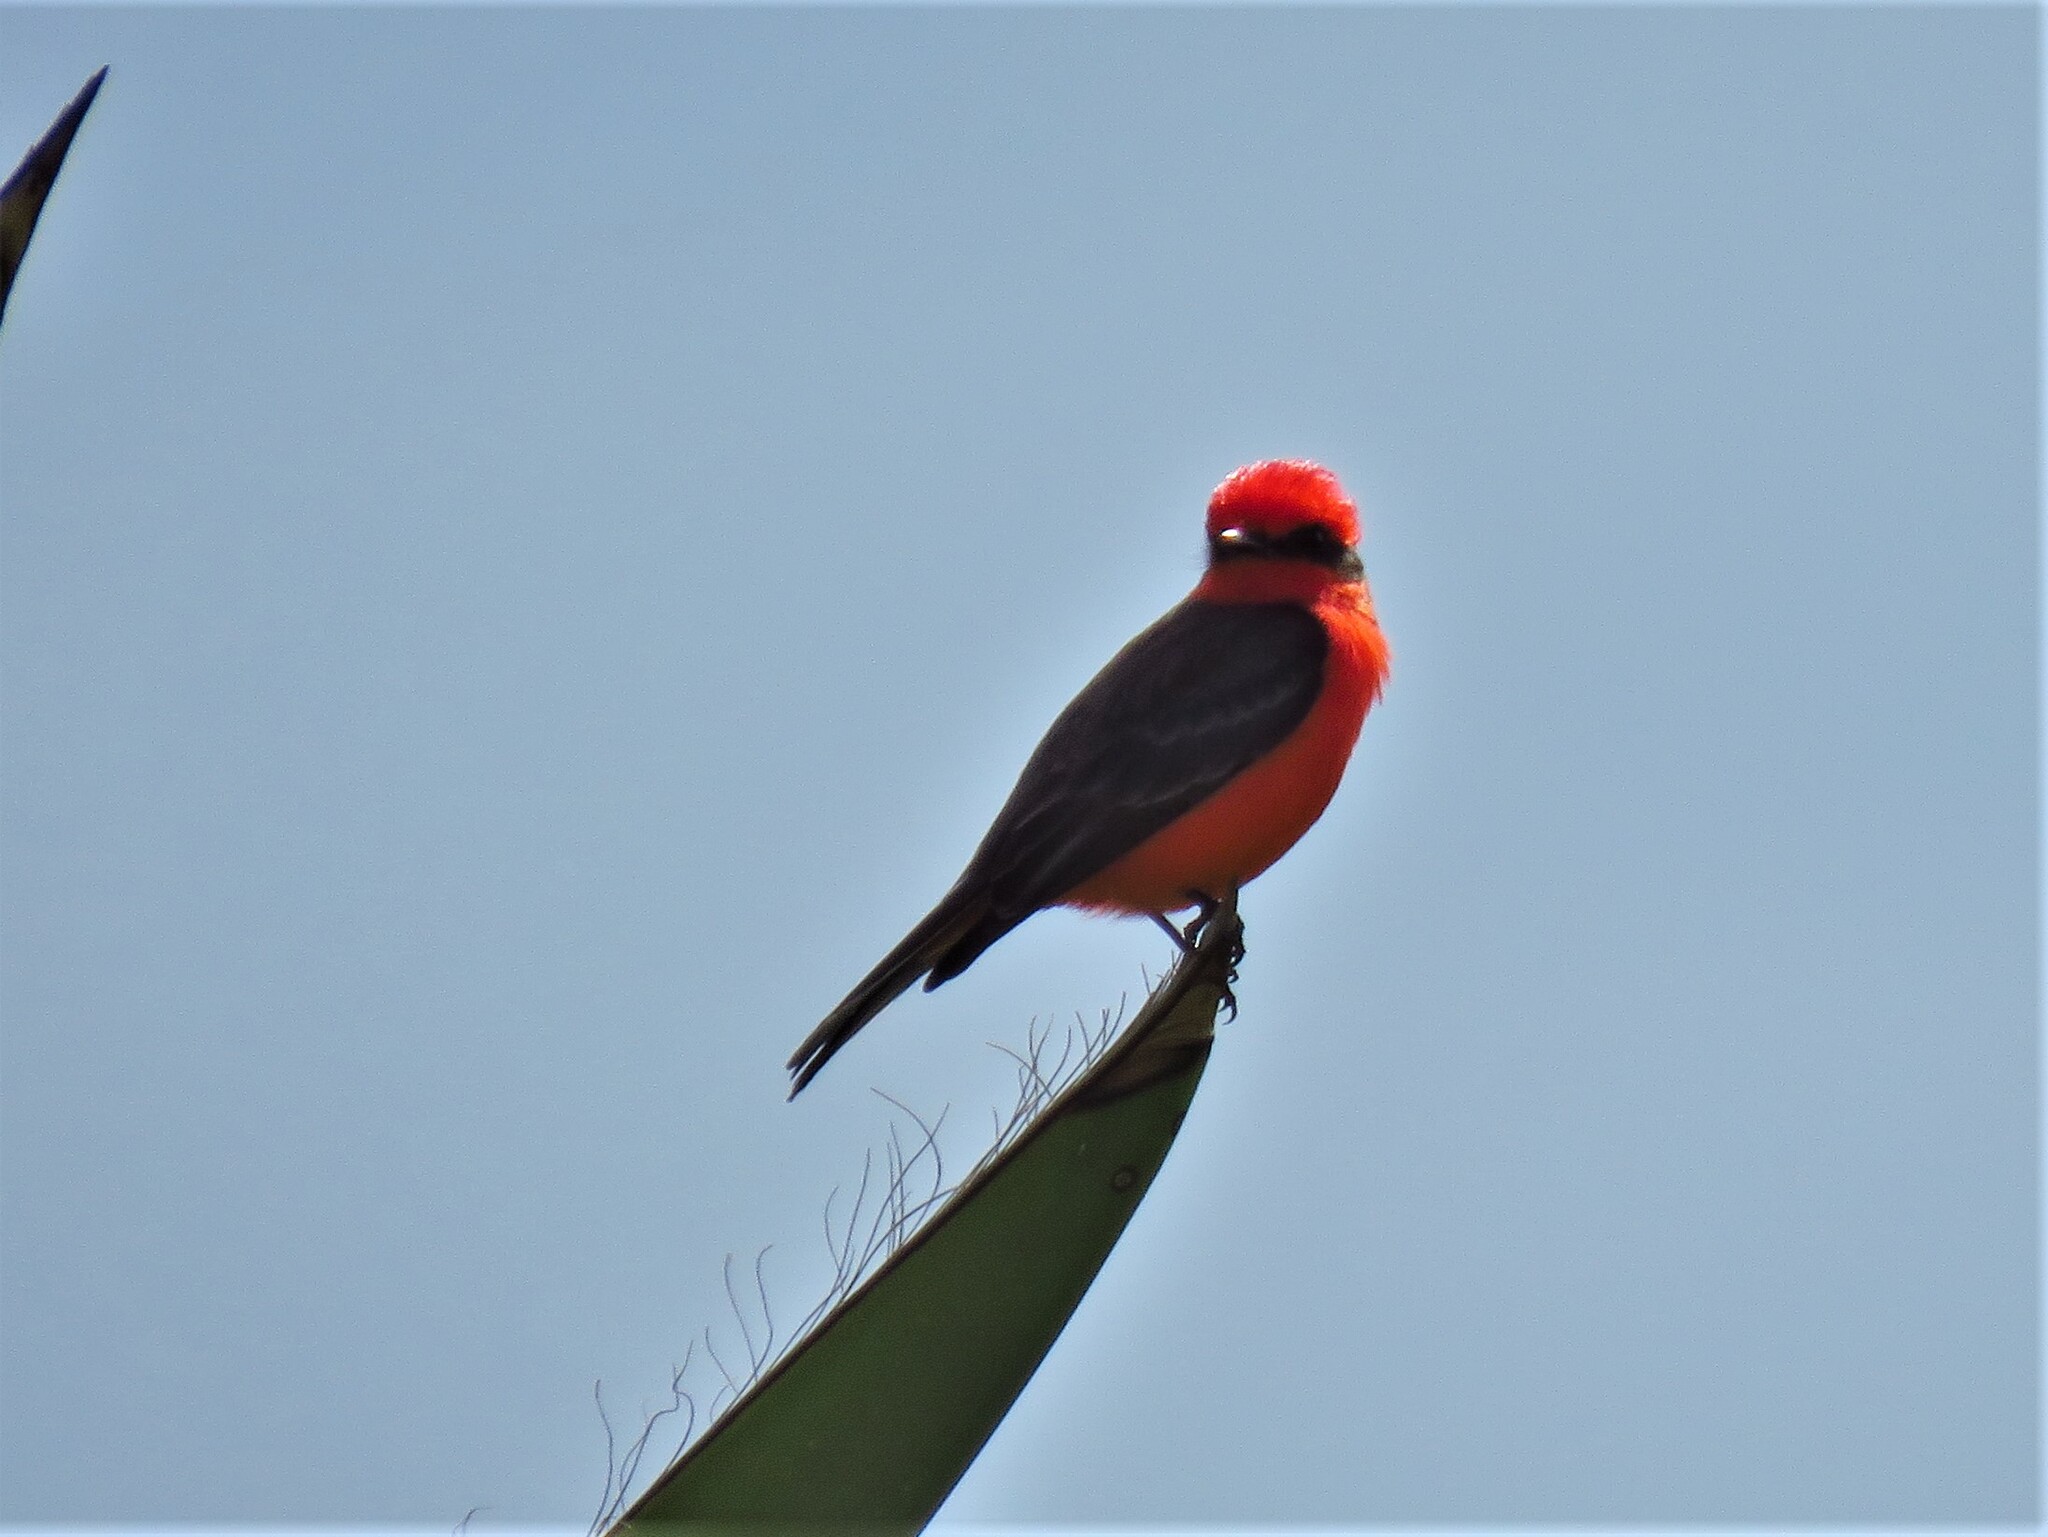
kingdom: Animalia
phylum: Chordata
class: Aves
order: Passeriformes
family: Tyrannidae
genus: Pyrocephalus
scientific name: Pyrocephalus rubinus
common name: Vermilion flycatcher
